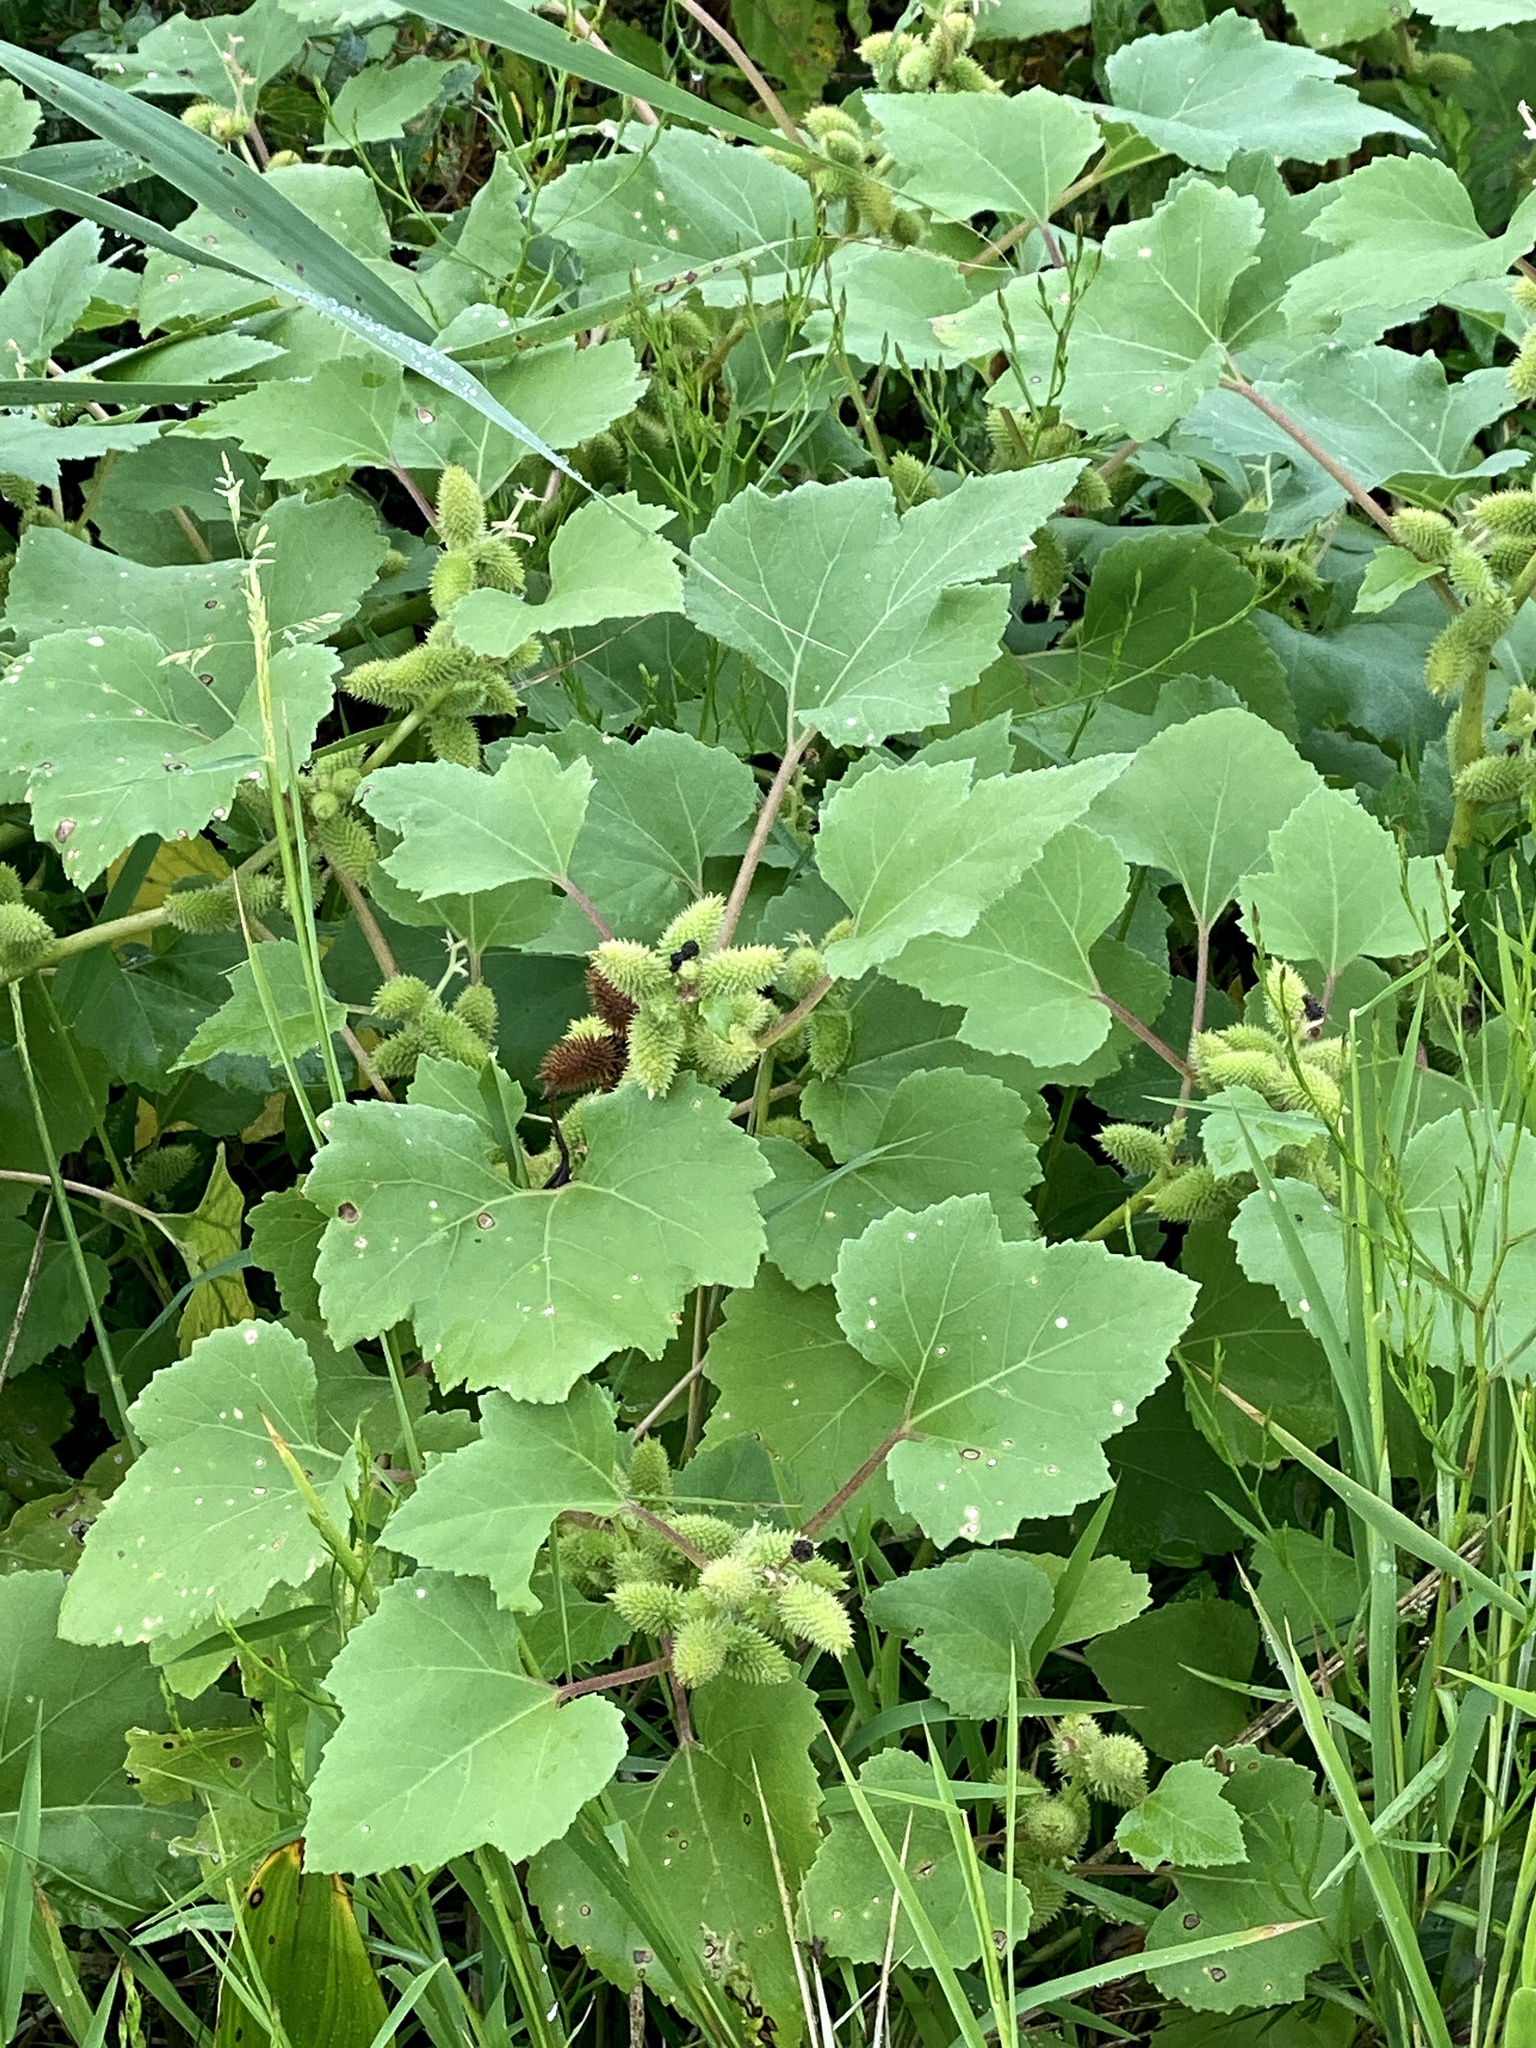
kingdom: Plantae
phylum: Tracheophyta
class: Magnoliopsida
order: Asterales
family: Asteraceae
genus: Xanthium
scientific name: Xanthium strumarium
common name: Rough cocklebur
